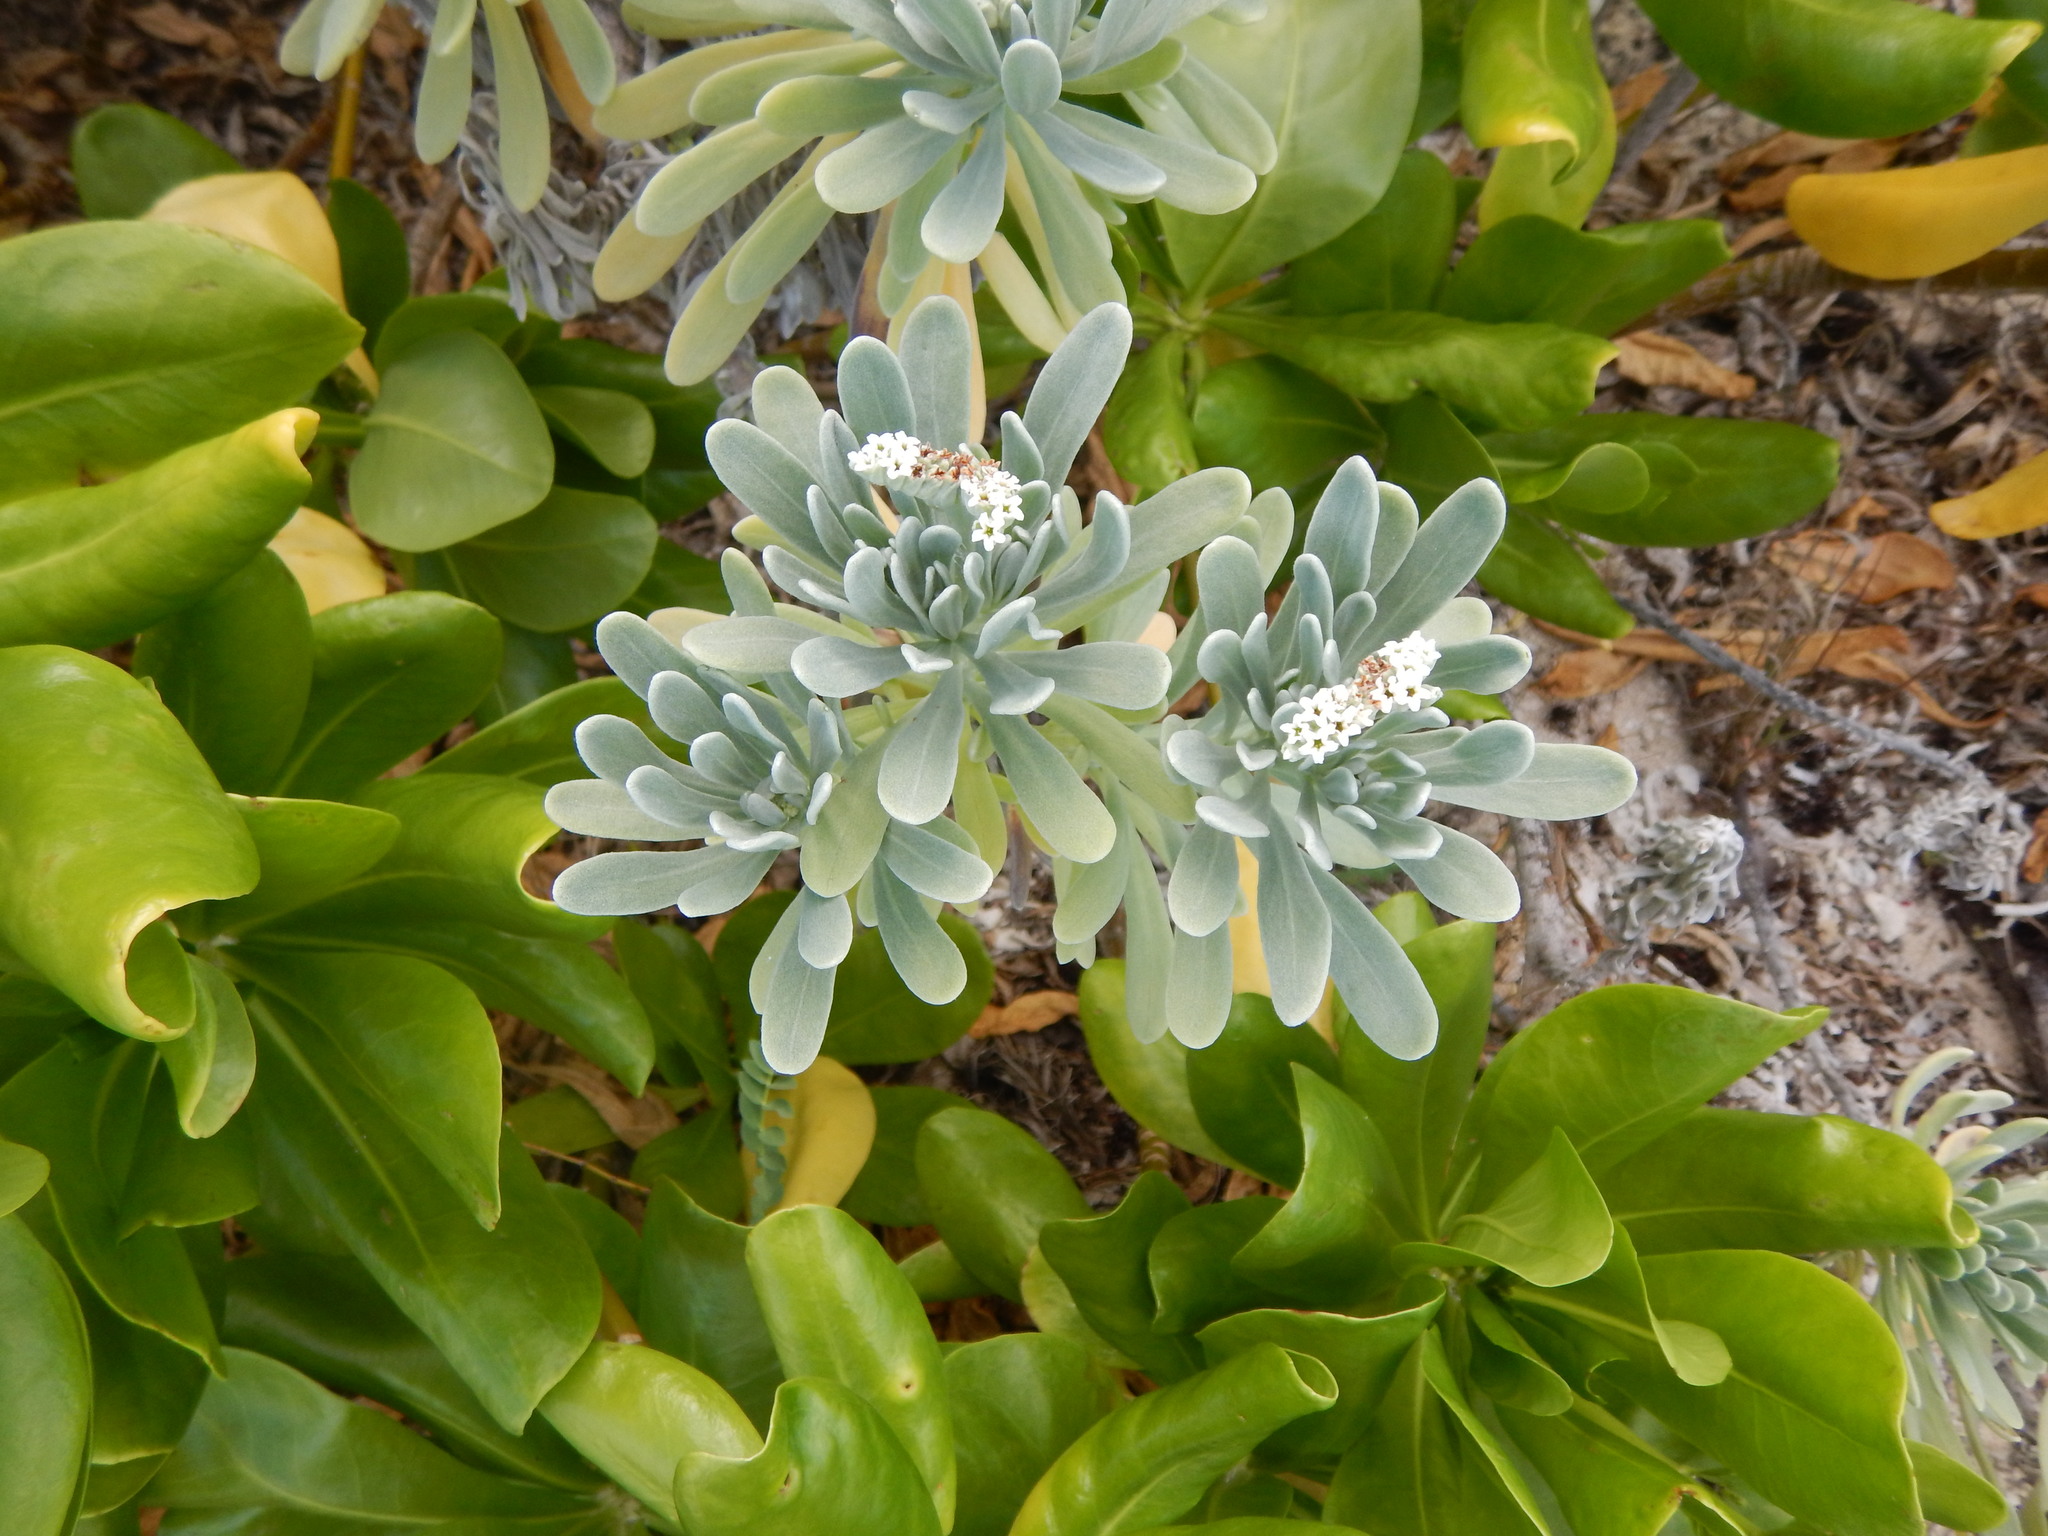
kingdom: Plantae
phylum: Tracheophyta
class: Magnoliopsida
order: Boraginales
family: Heliotropiaceae
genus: Tournefortia
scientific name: Tournefortia gnaphalodes
